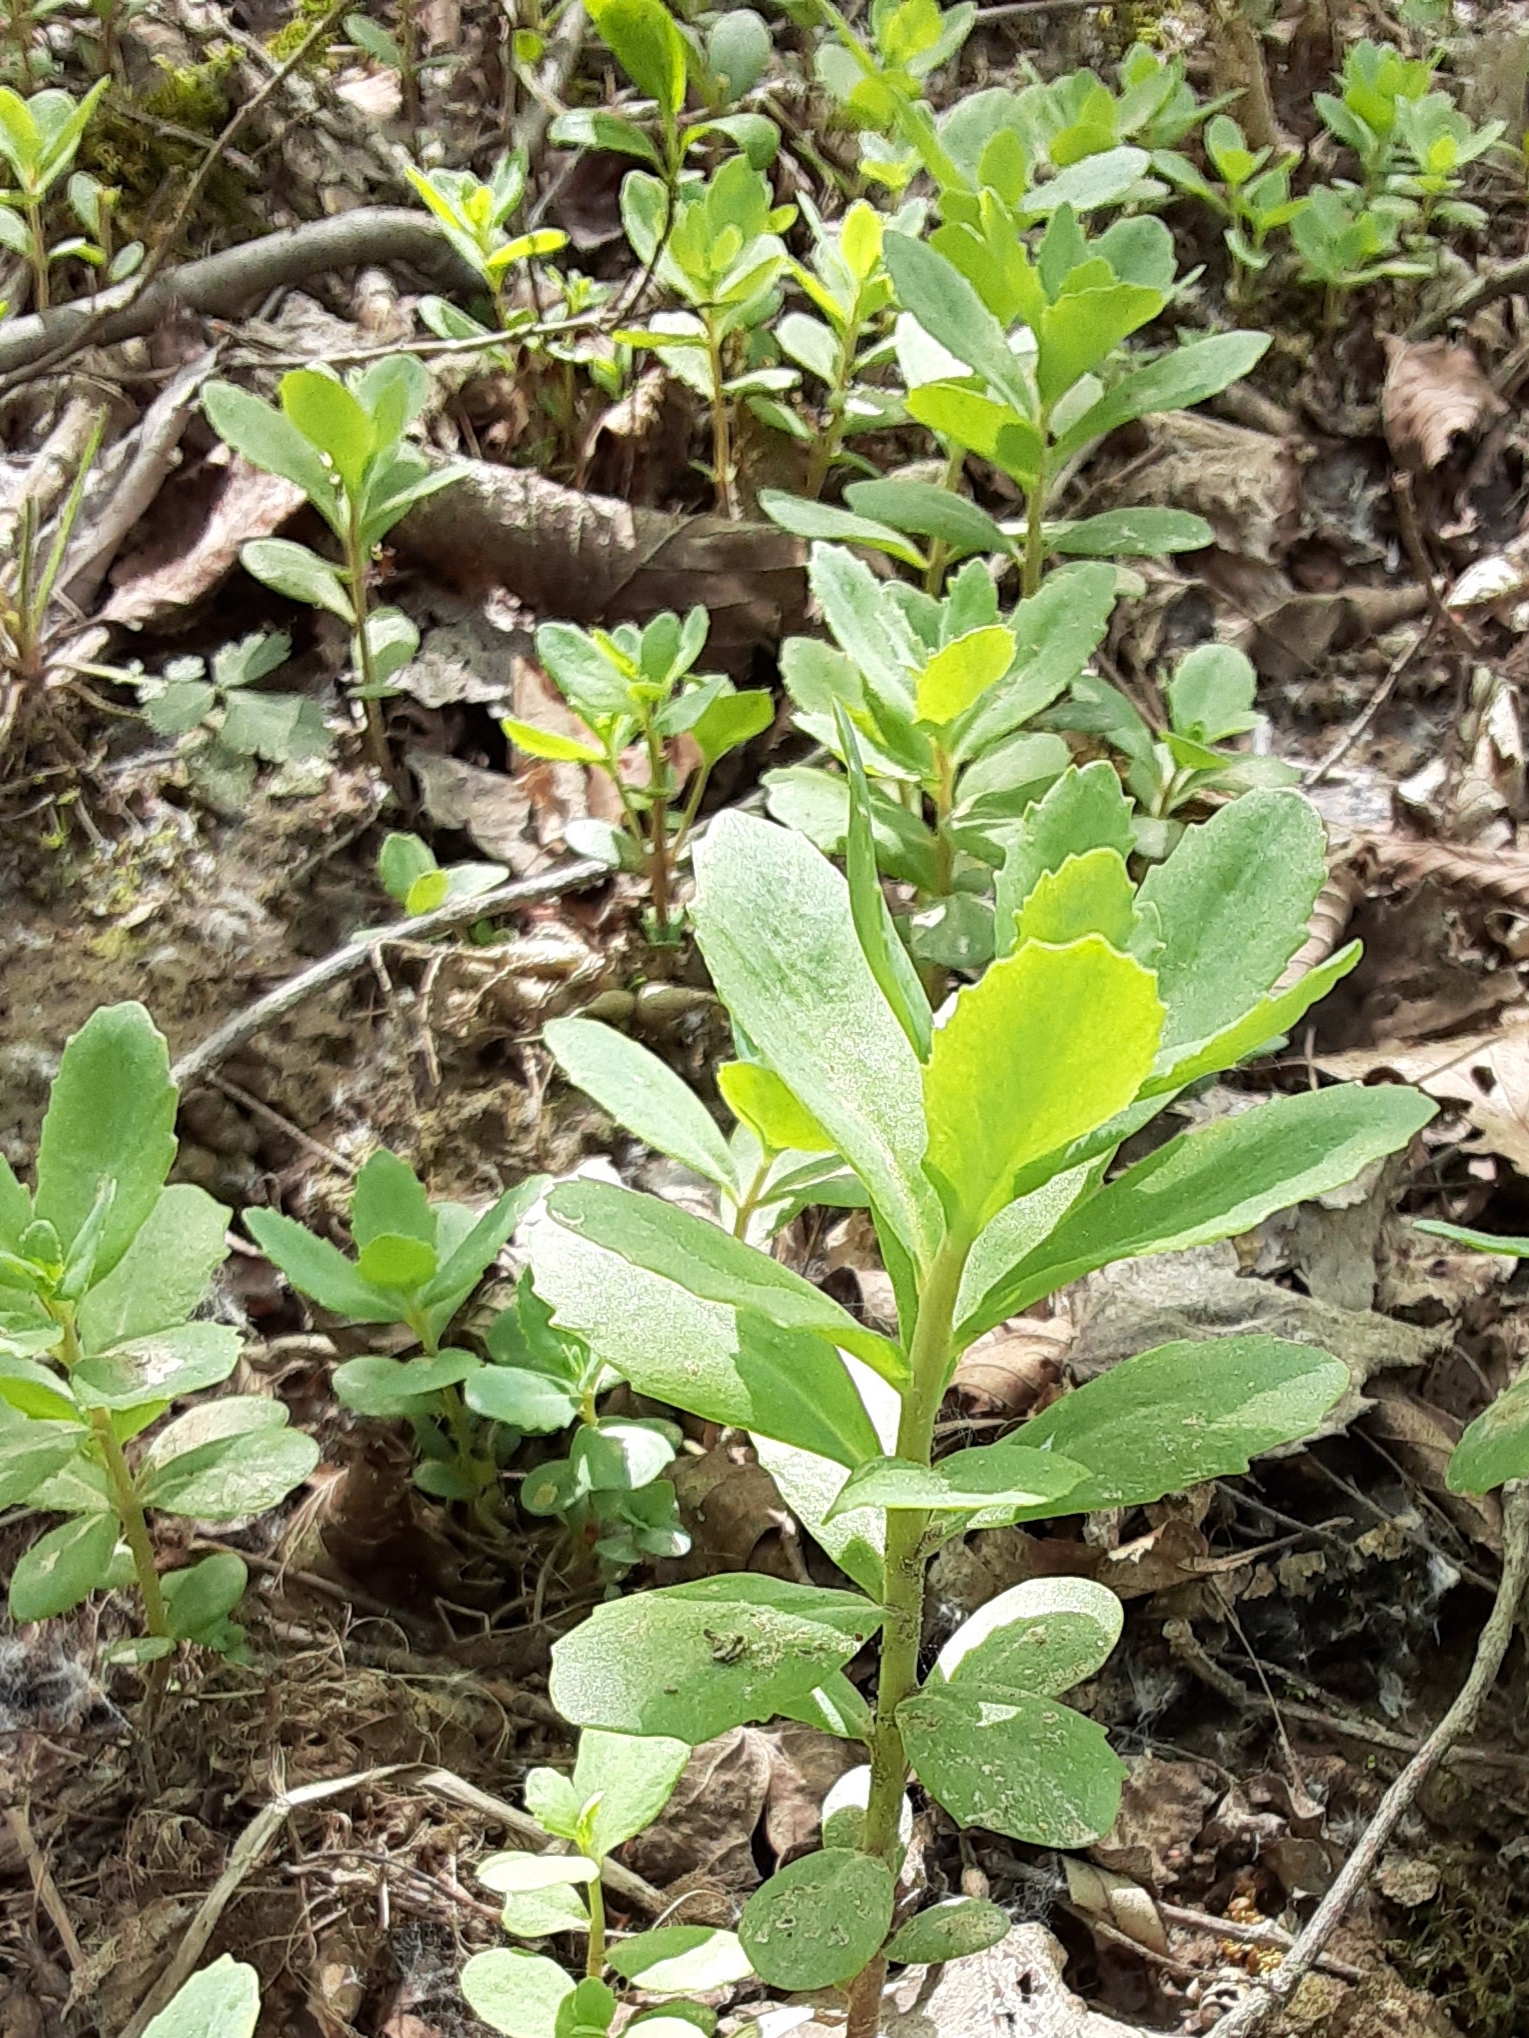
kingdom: Plantae
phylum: Tracheophyta
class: Magnoliopsida
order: Saxifragales
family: Crassulaceae
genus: Hylotelephium
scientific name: Hylotelephium telephium
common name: Live-forever
